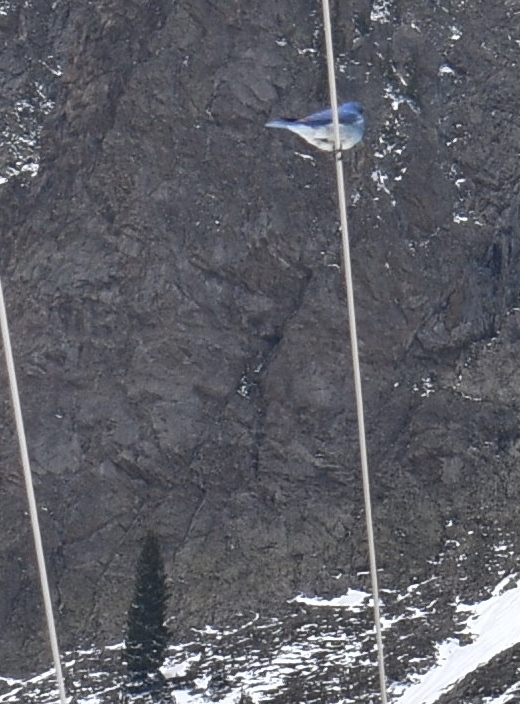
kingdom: Animalia
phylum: Chordata
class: Aves
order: Passeriformes
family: Turdidae
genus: Sialia
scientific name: Sialia currucoides
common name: Mountain bluebird
